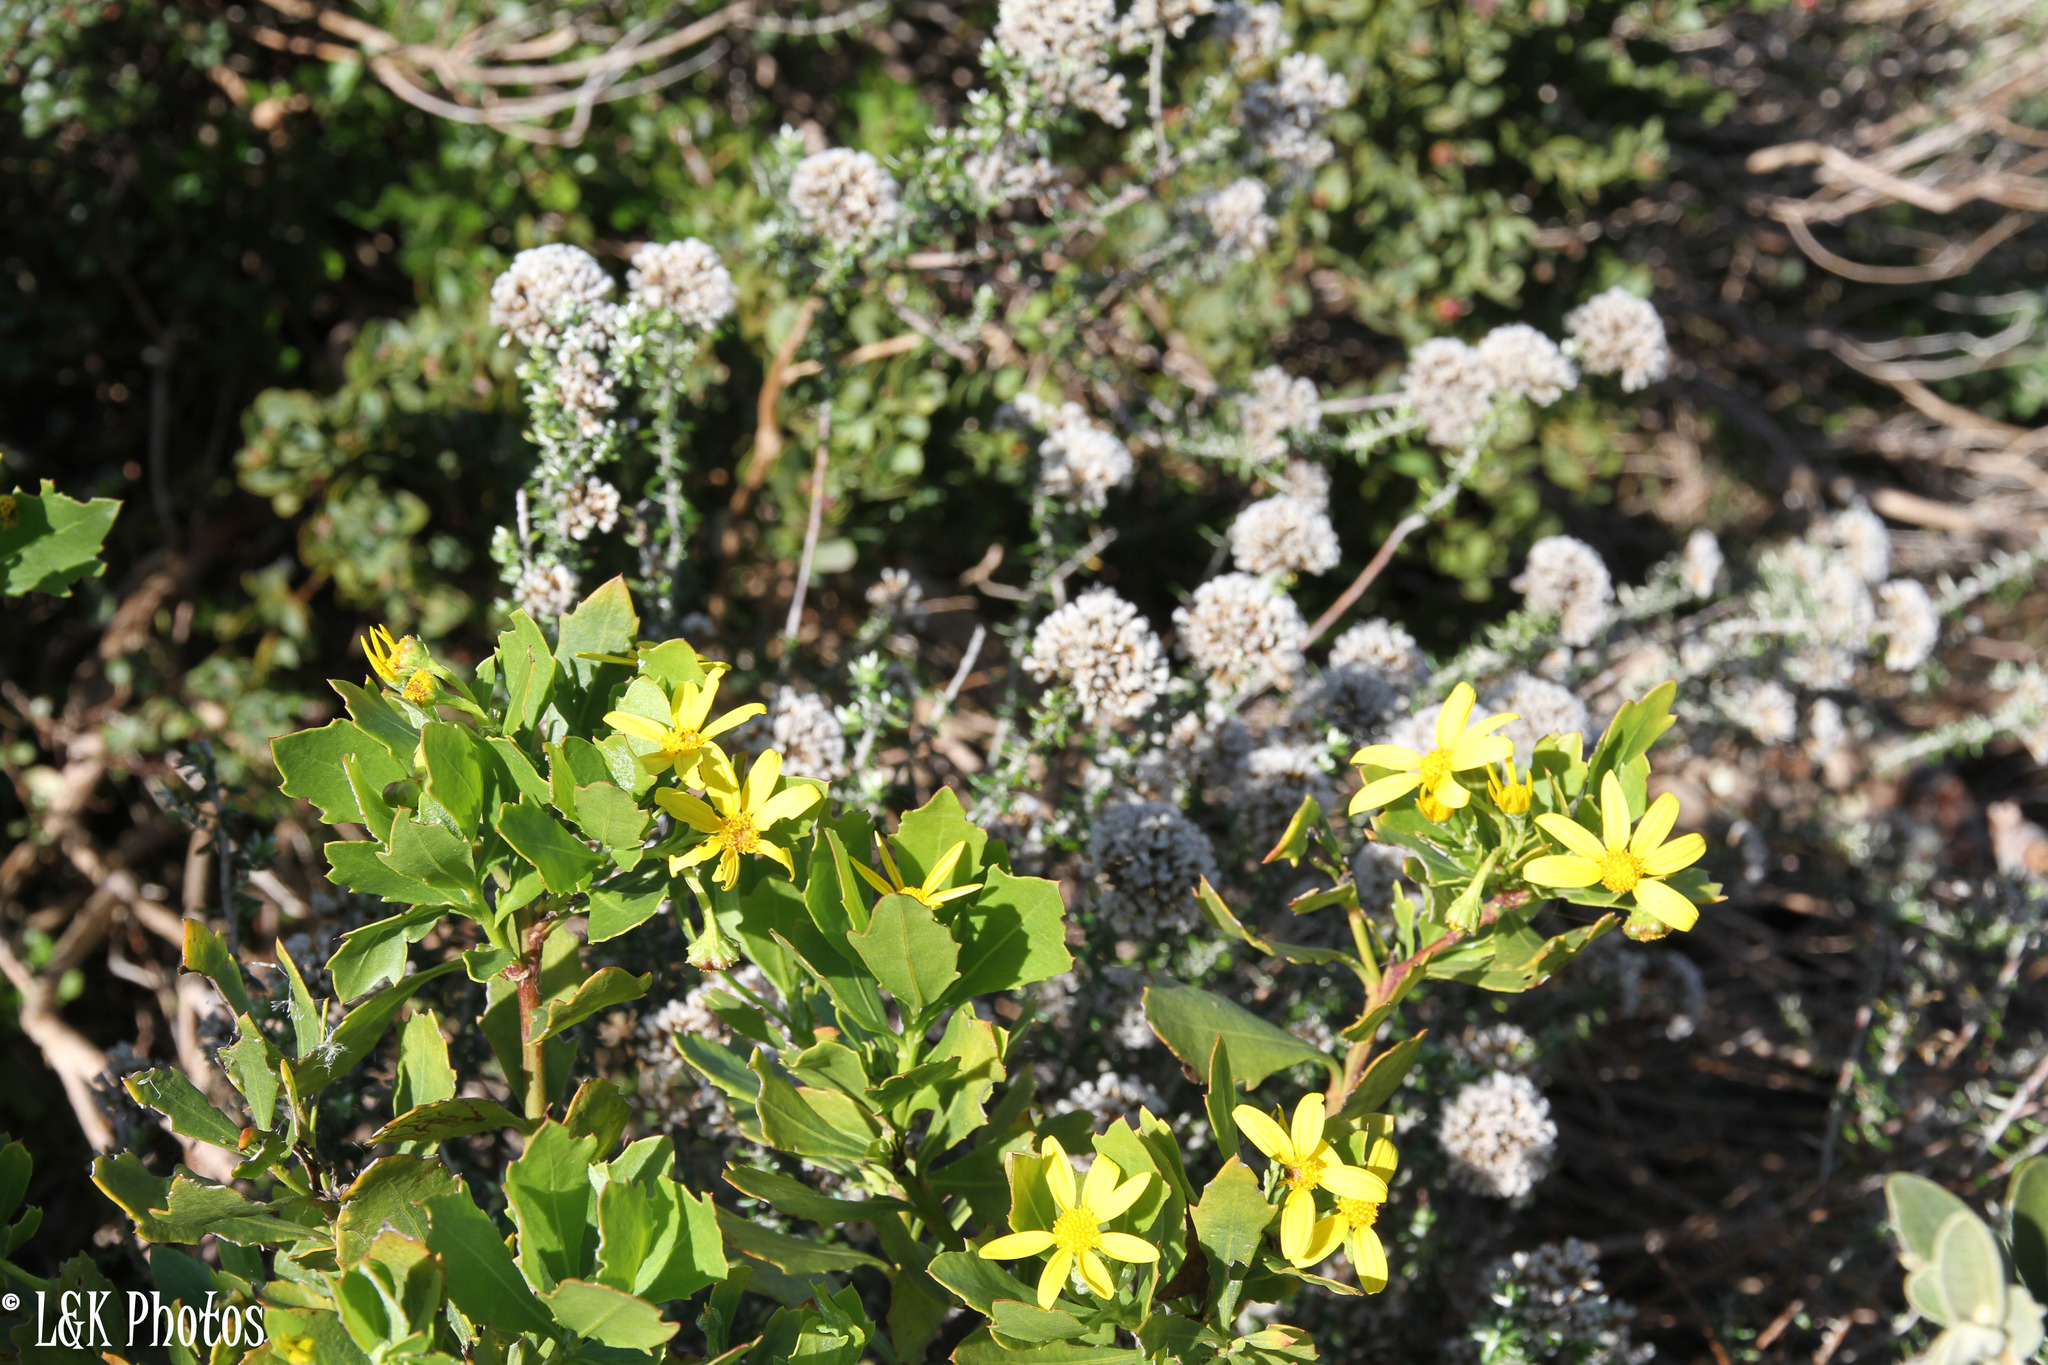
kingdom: Plantae
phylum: Tracheophyta
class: Magnoliopsida
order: Asterales
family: Asteraceae
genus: Osteospermum
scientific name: Osteospermum moniliferum
